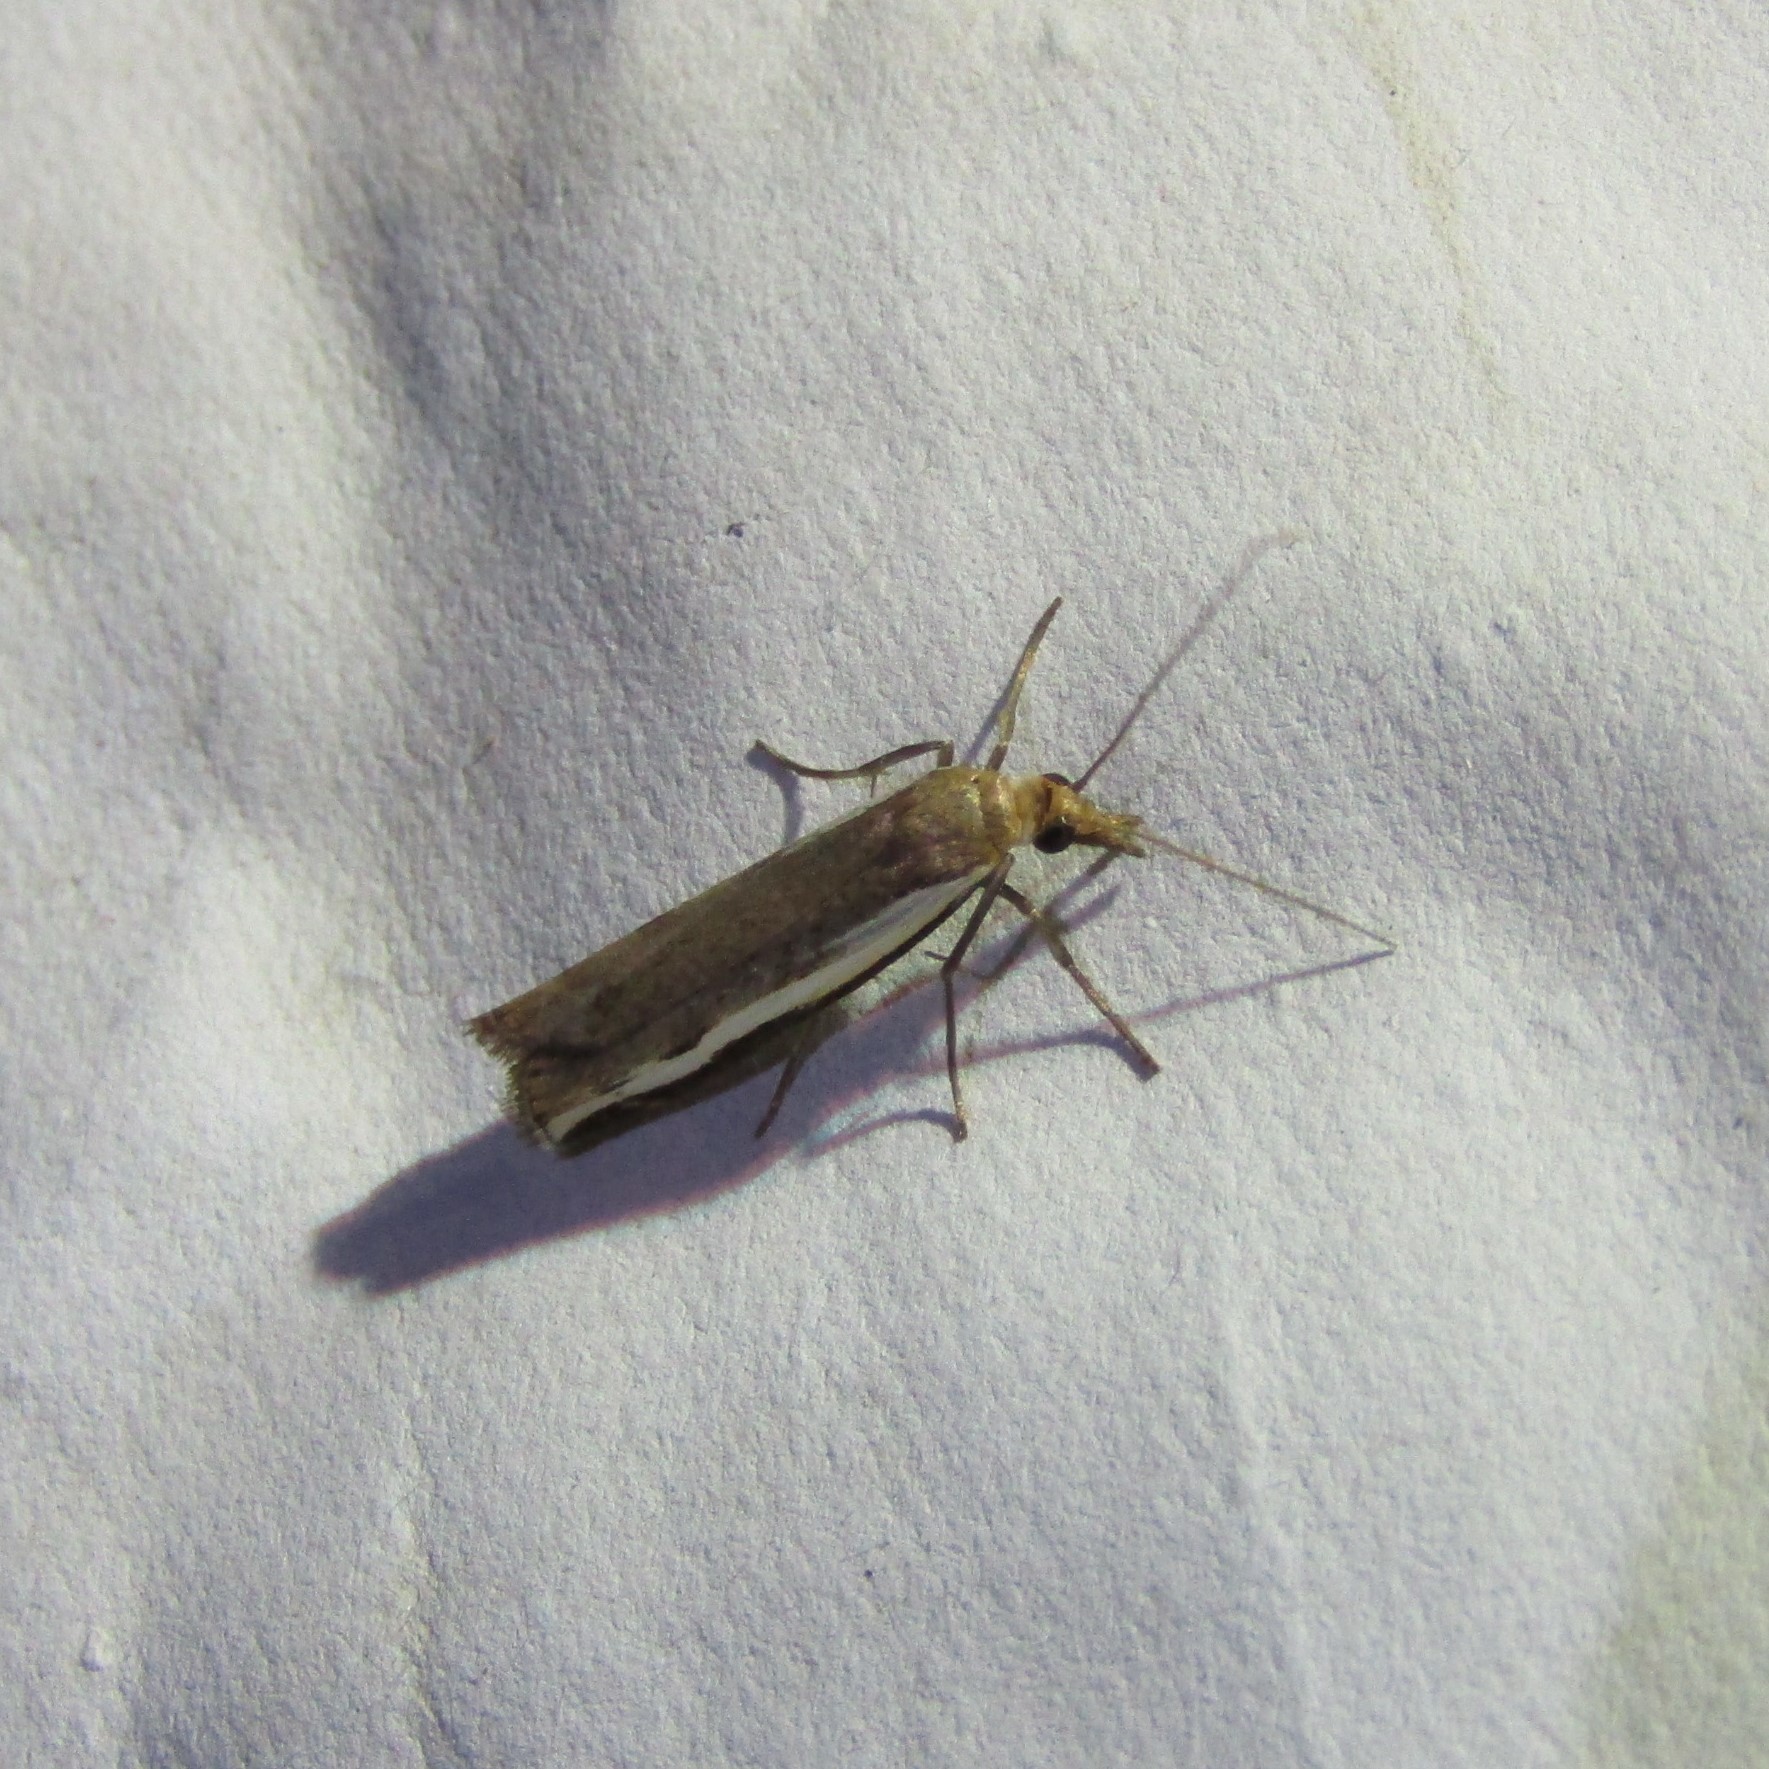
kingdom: Animalia
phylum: Arthropoda
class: Insecta
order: Lepidoptera
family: Crambidae
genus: Orocrambus
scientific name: Orocrambus flexuosellus
